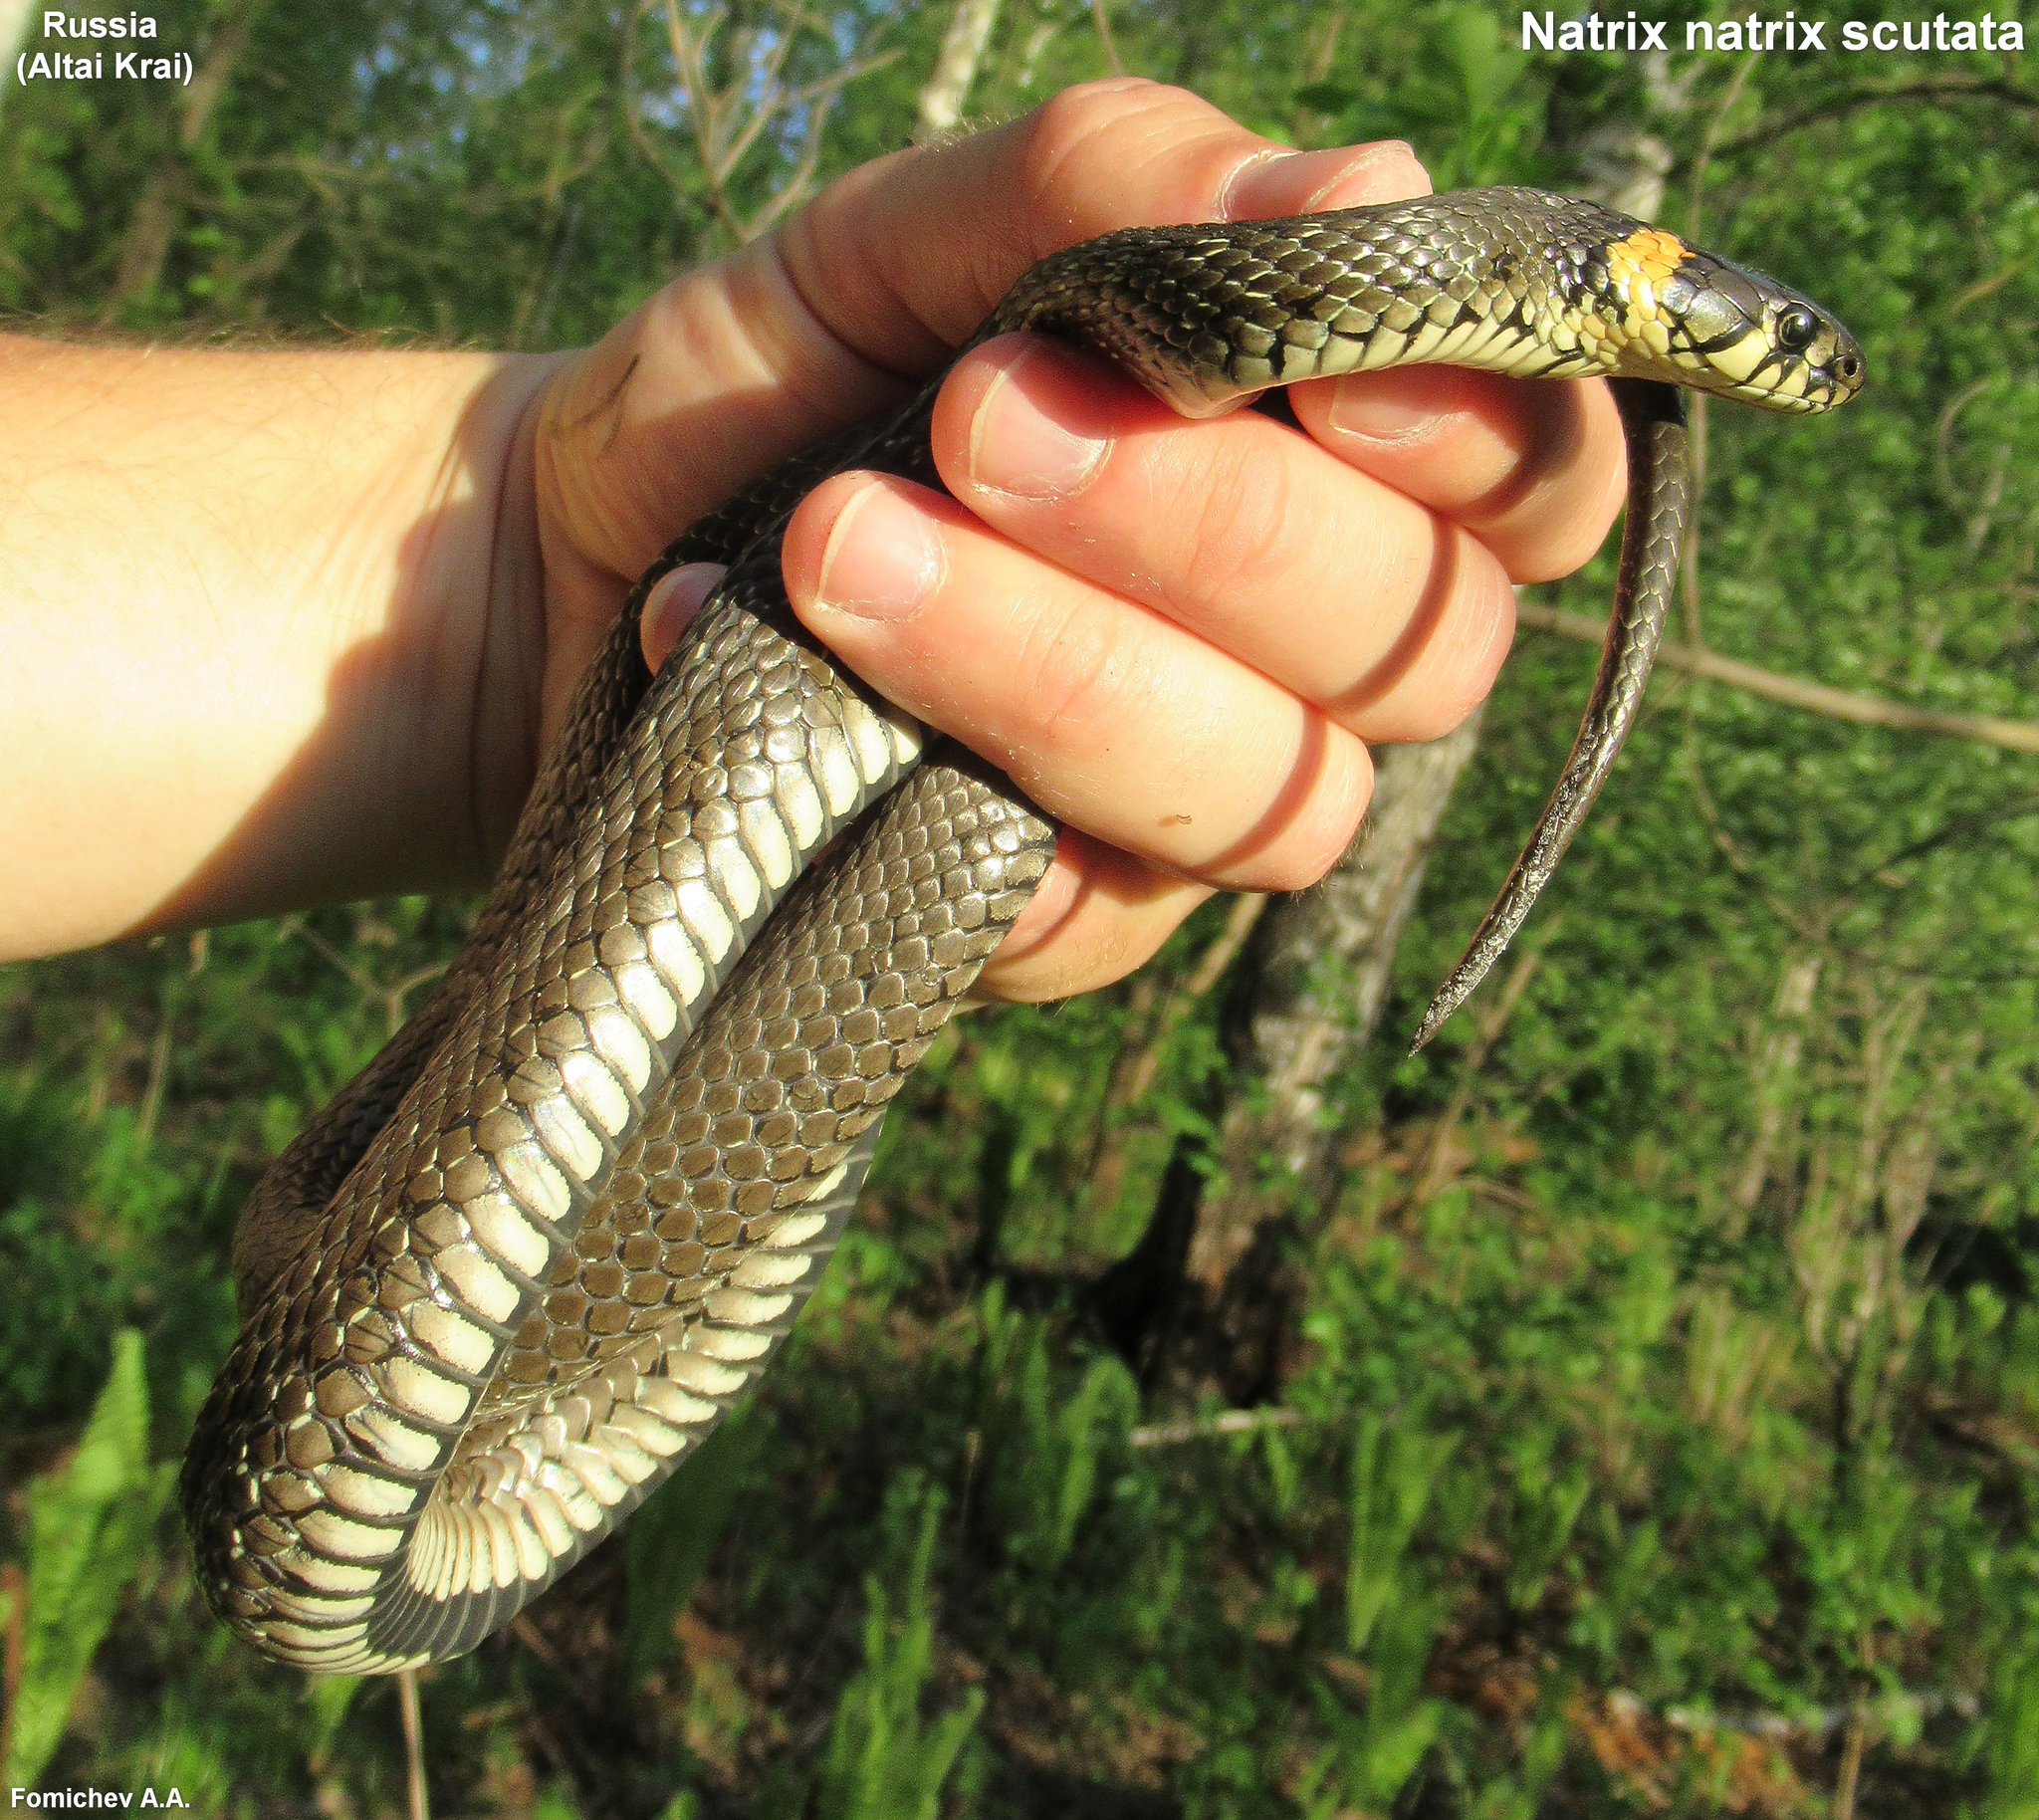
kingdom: Animalia
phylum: Chordata
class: Squamata
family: Colubridae
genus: Natrix
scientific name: Natrix natrix
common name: Grass snake
